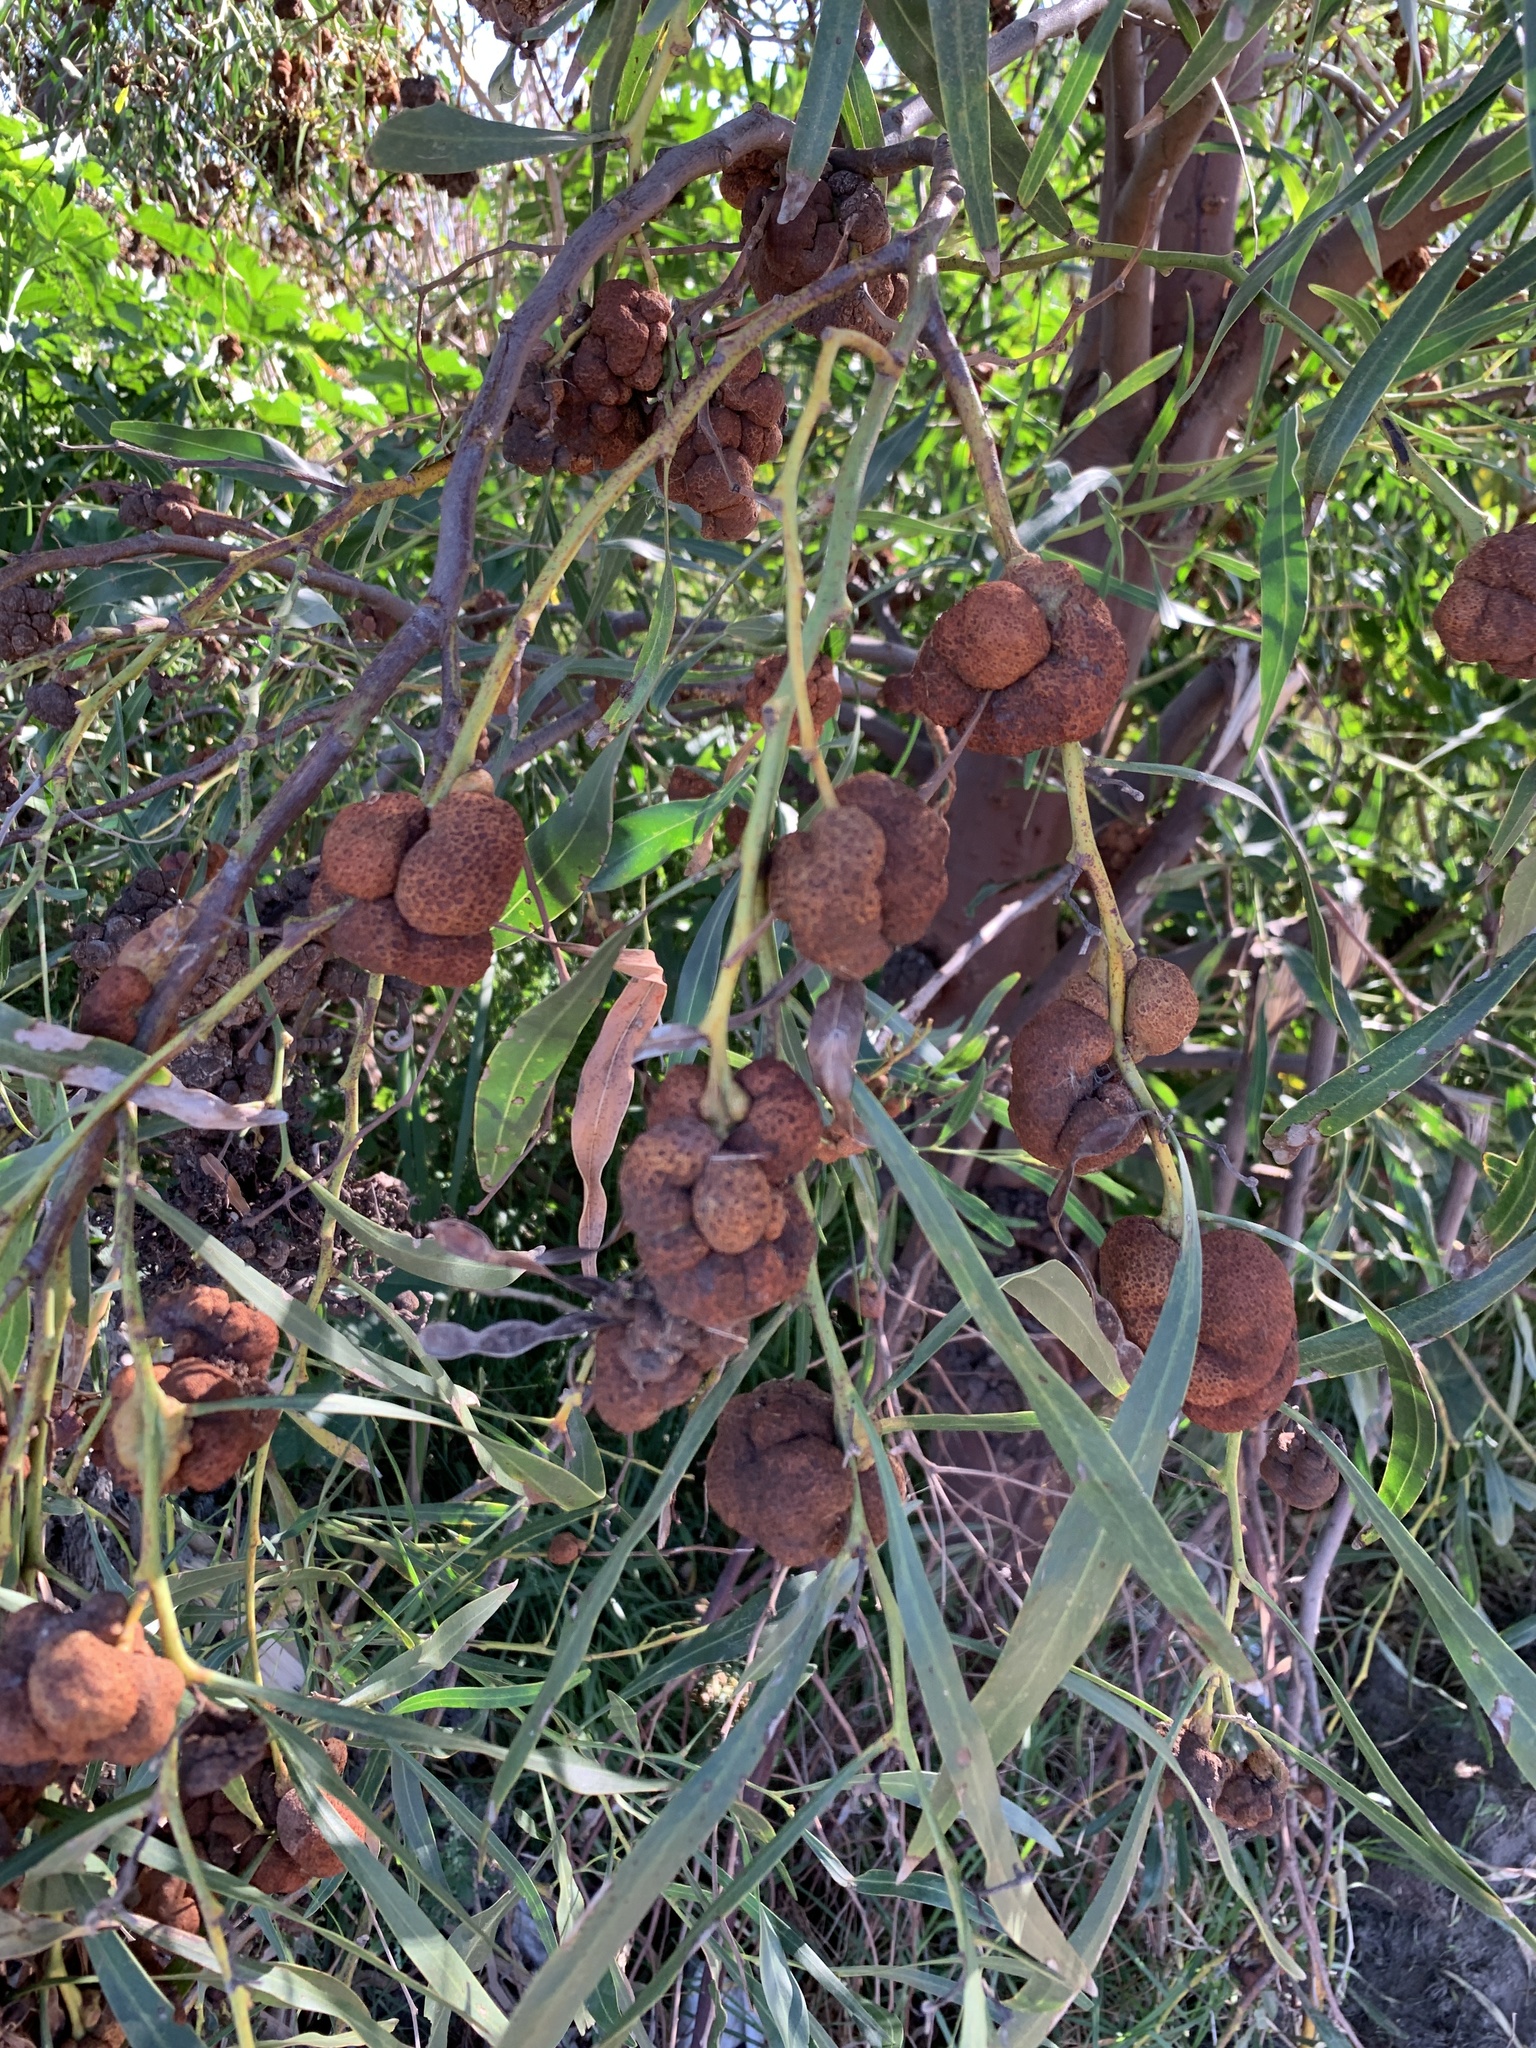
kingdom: Fungi
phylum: Basidiomycota
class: Pucciniomycetes
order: Pucciniales
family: Uromycladiaceae
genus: Uromycladium
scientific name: Uromycladium morrisii
